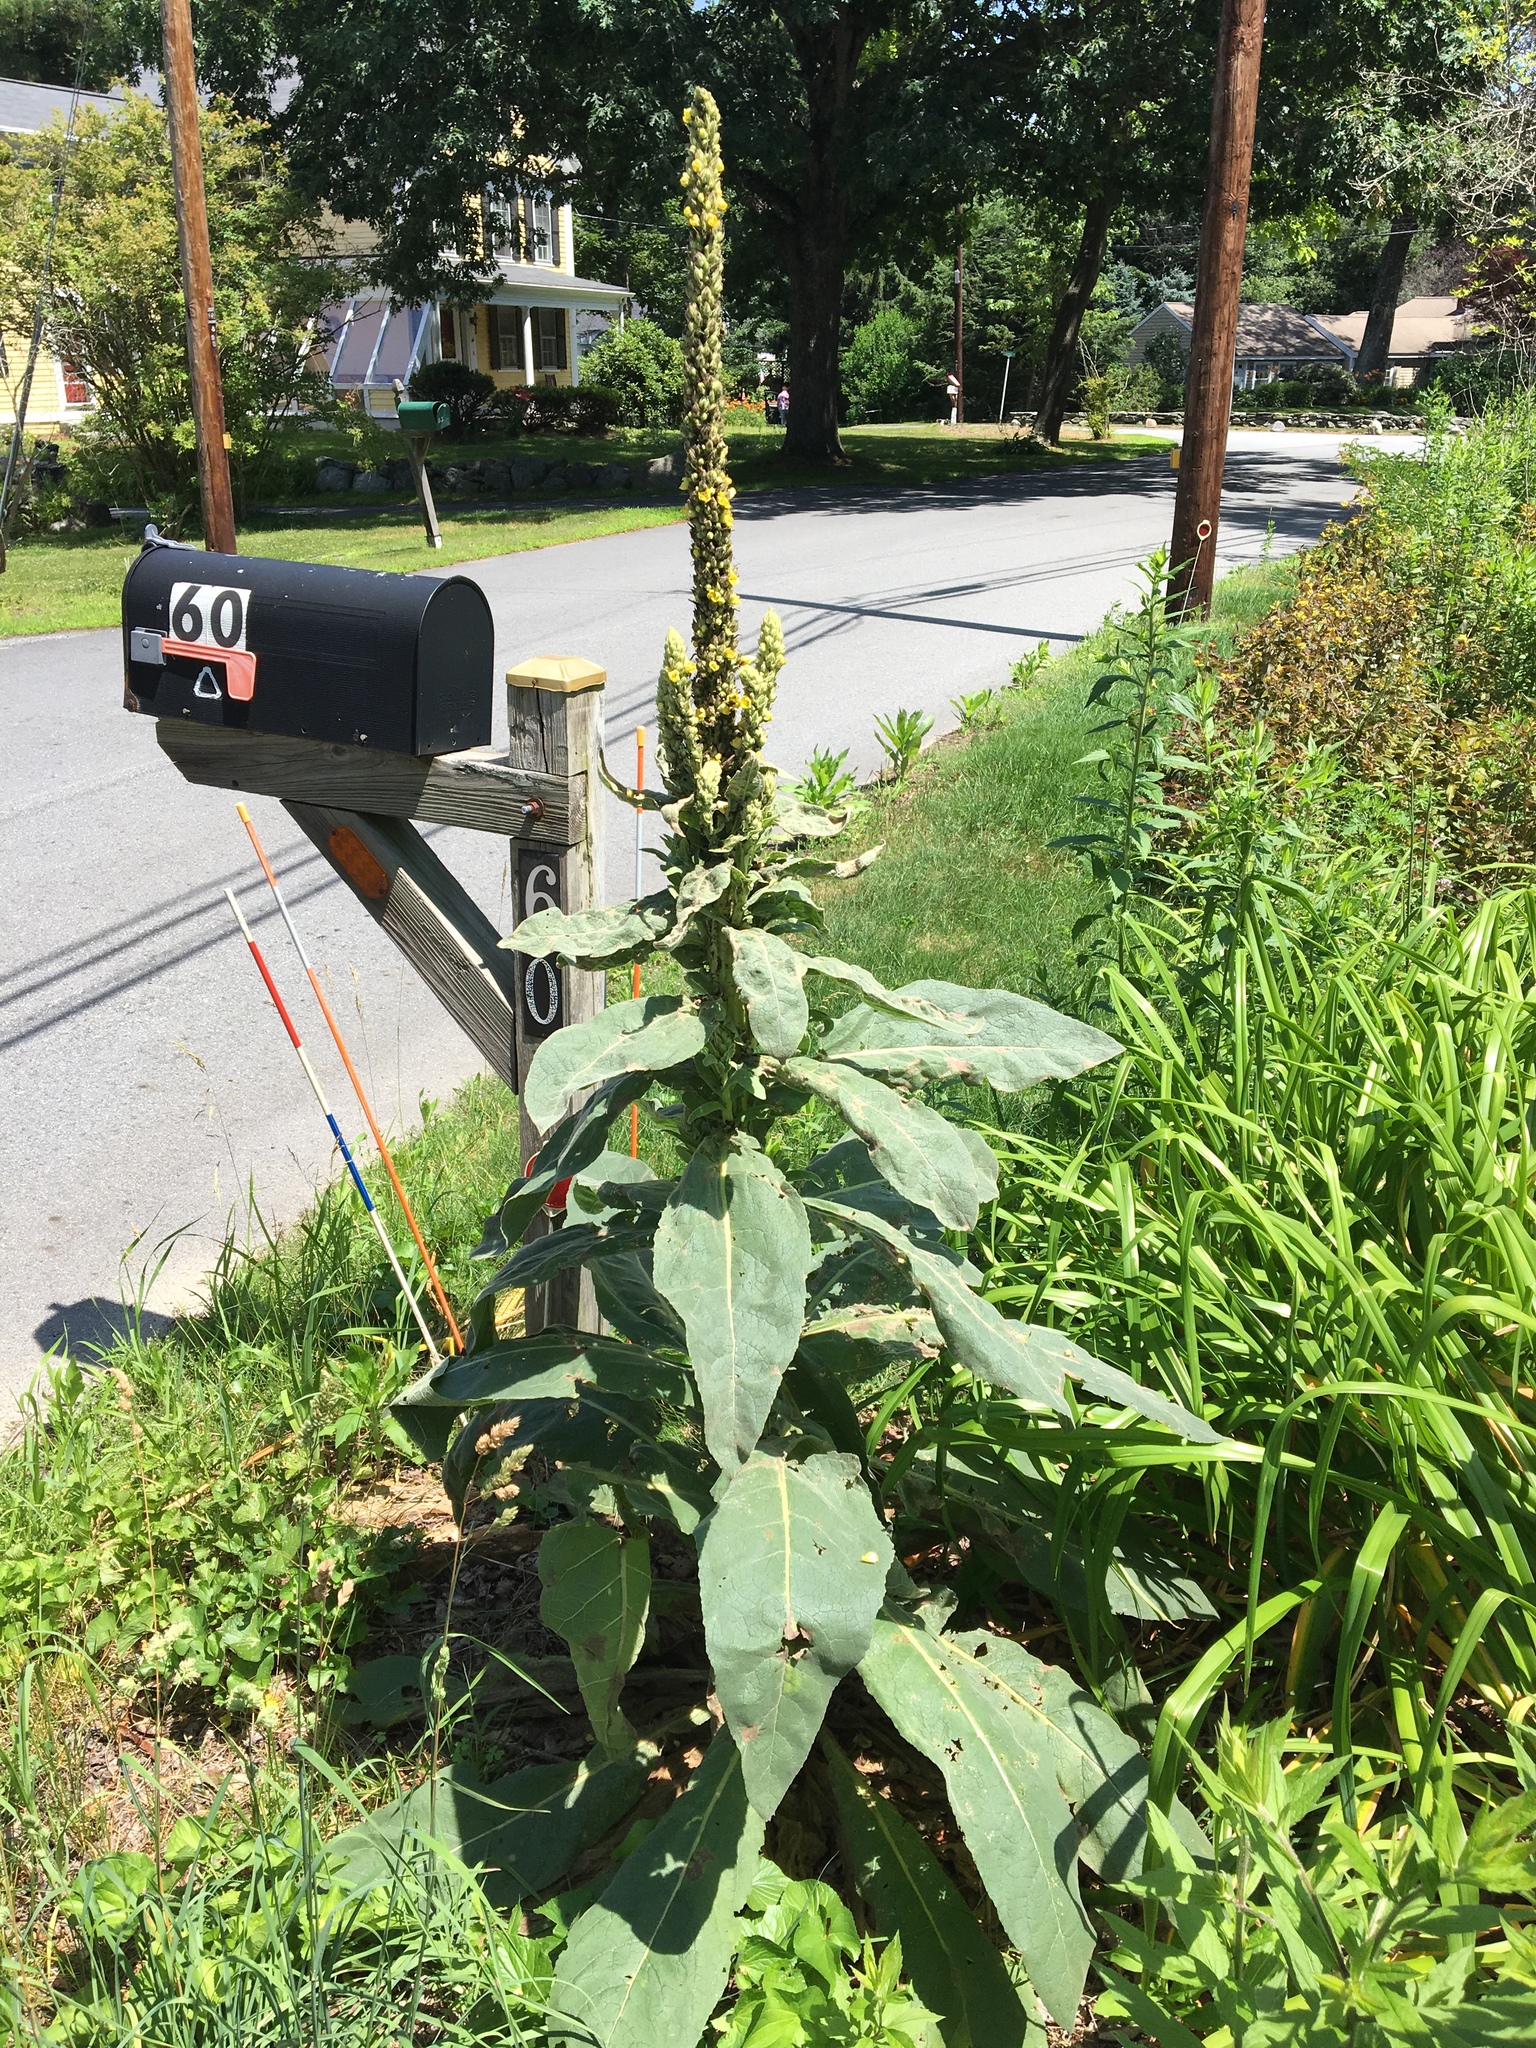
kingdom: Plantae
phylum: Tracheophyta
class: Magnoliopsida
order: Lamiales
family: Scrophulariaceae
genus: Verbascum
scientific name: Verbascum thapsus
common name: Common mullein
